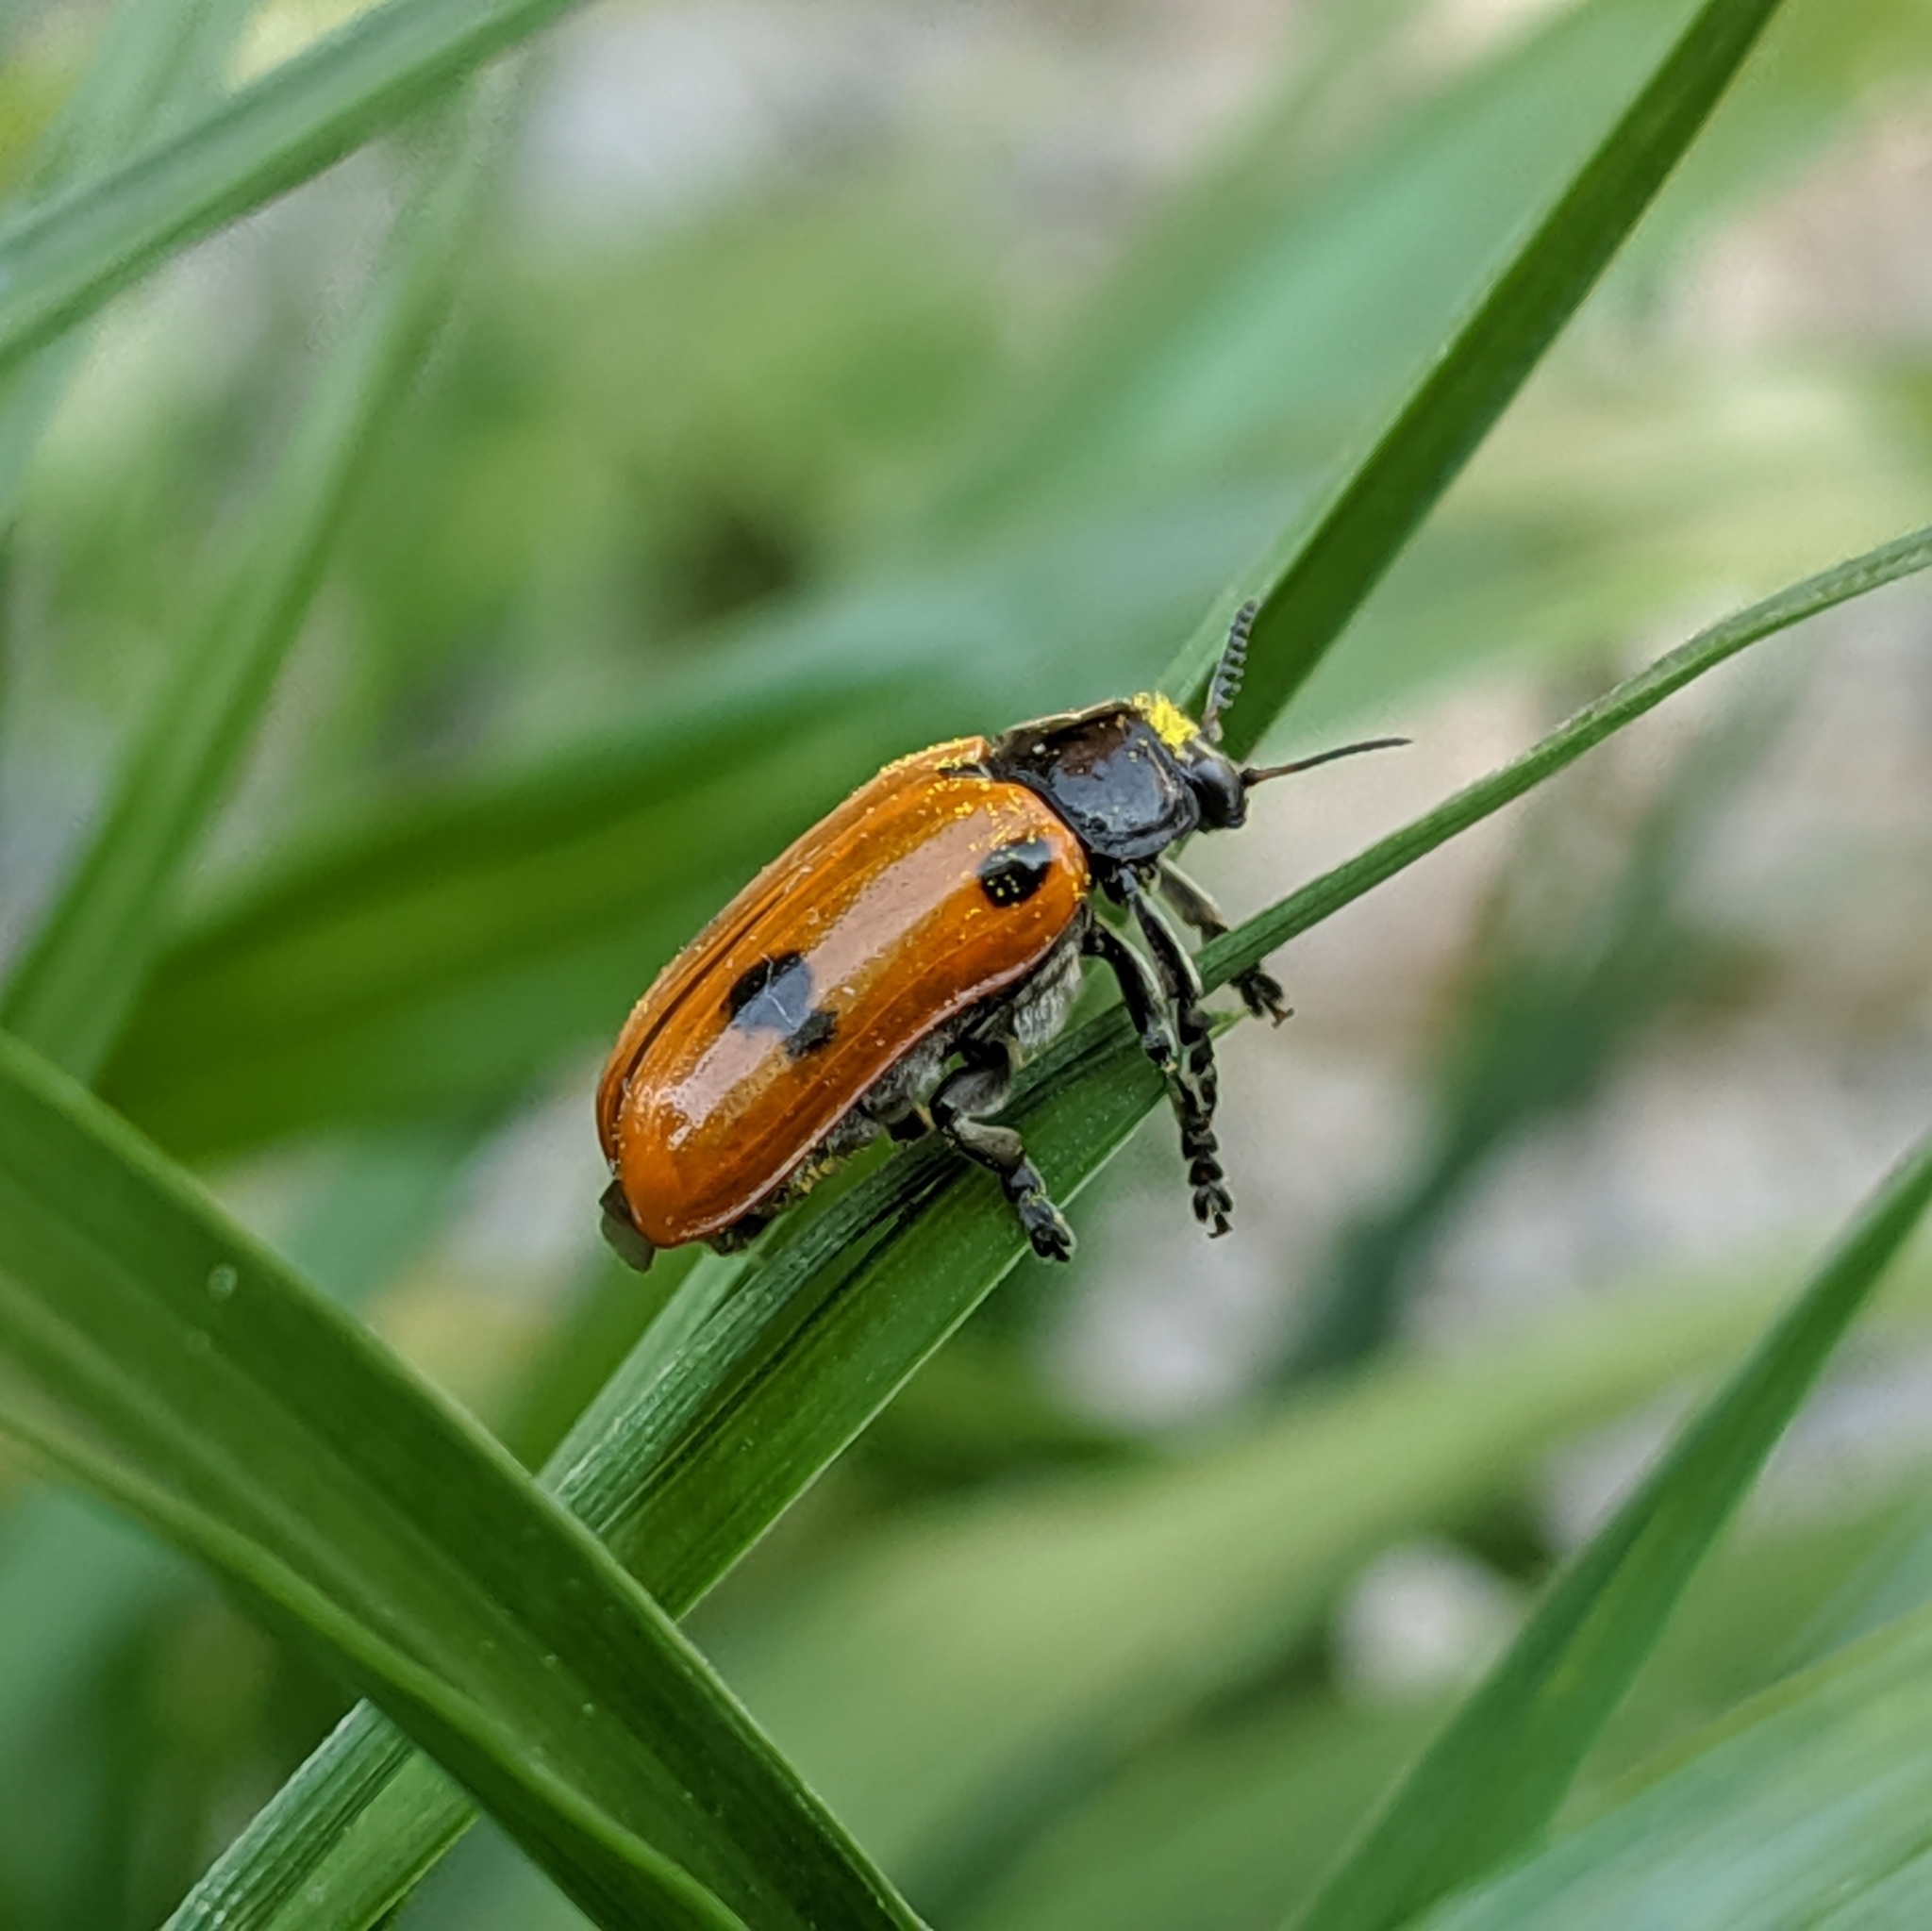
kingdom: Animalia
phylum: Arthropoda
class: Insecta
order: Coleoptera
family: Chrysomelidae
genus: Clytra
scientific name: Clytra quadripunctata
